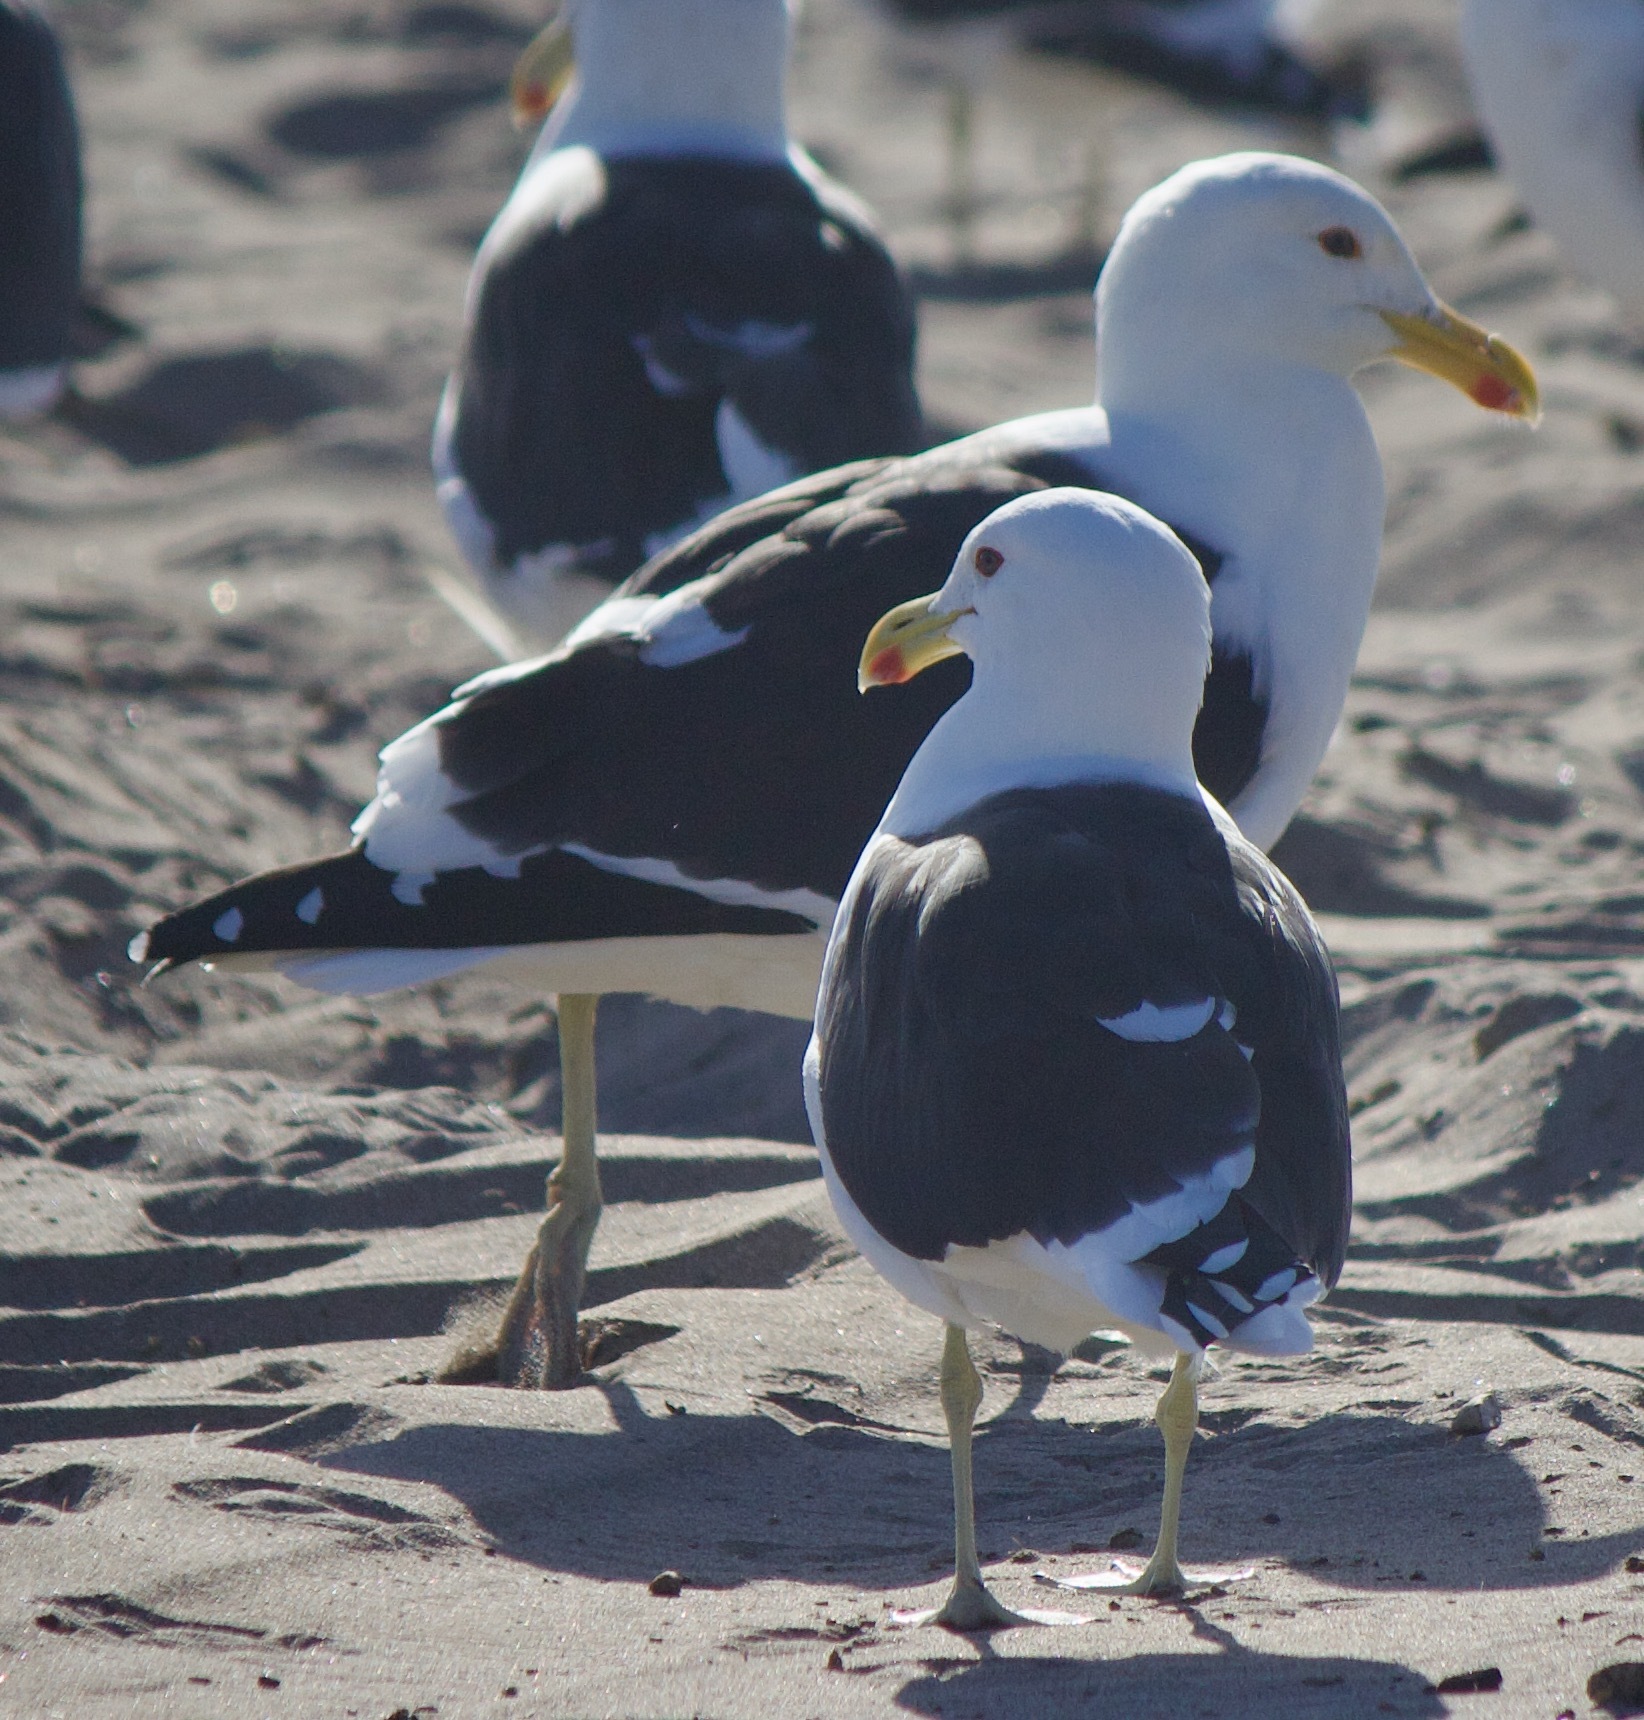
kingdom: Animalia
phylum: Chordata
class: Aves
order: Charadriiformes
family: Laridae
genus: Larus
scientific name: Larus dominicanus
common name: Kelp gull
